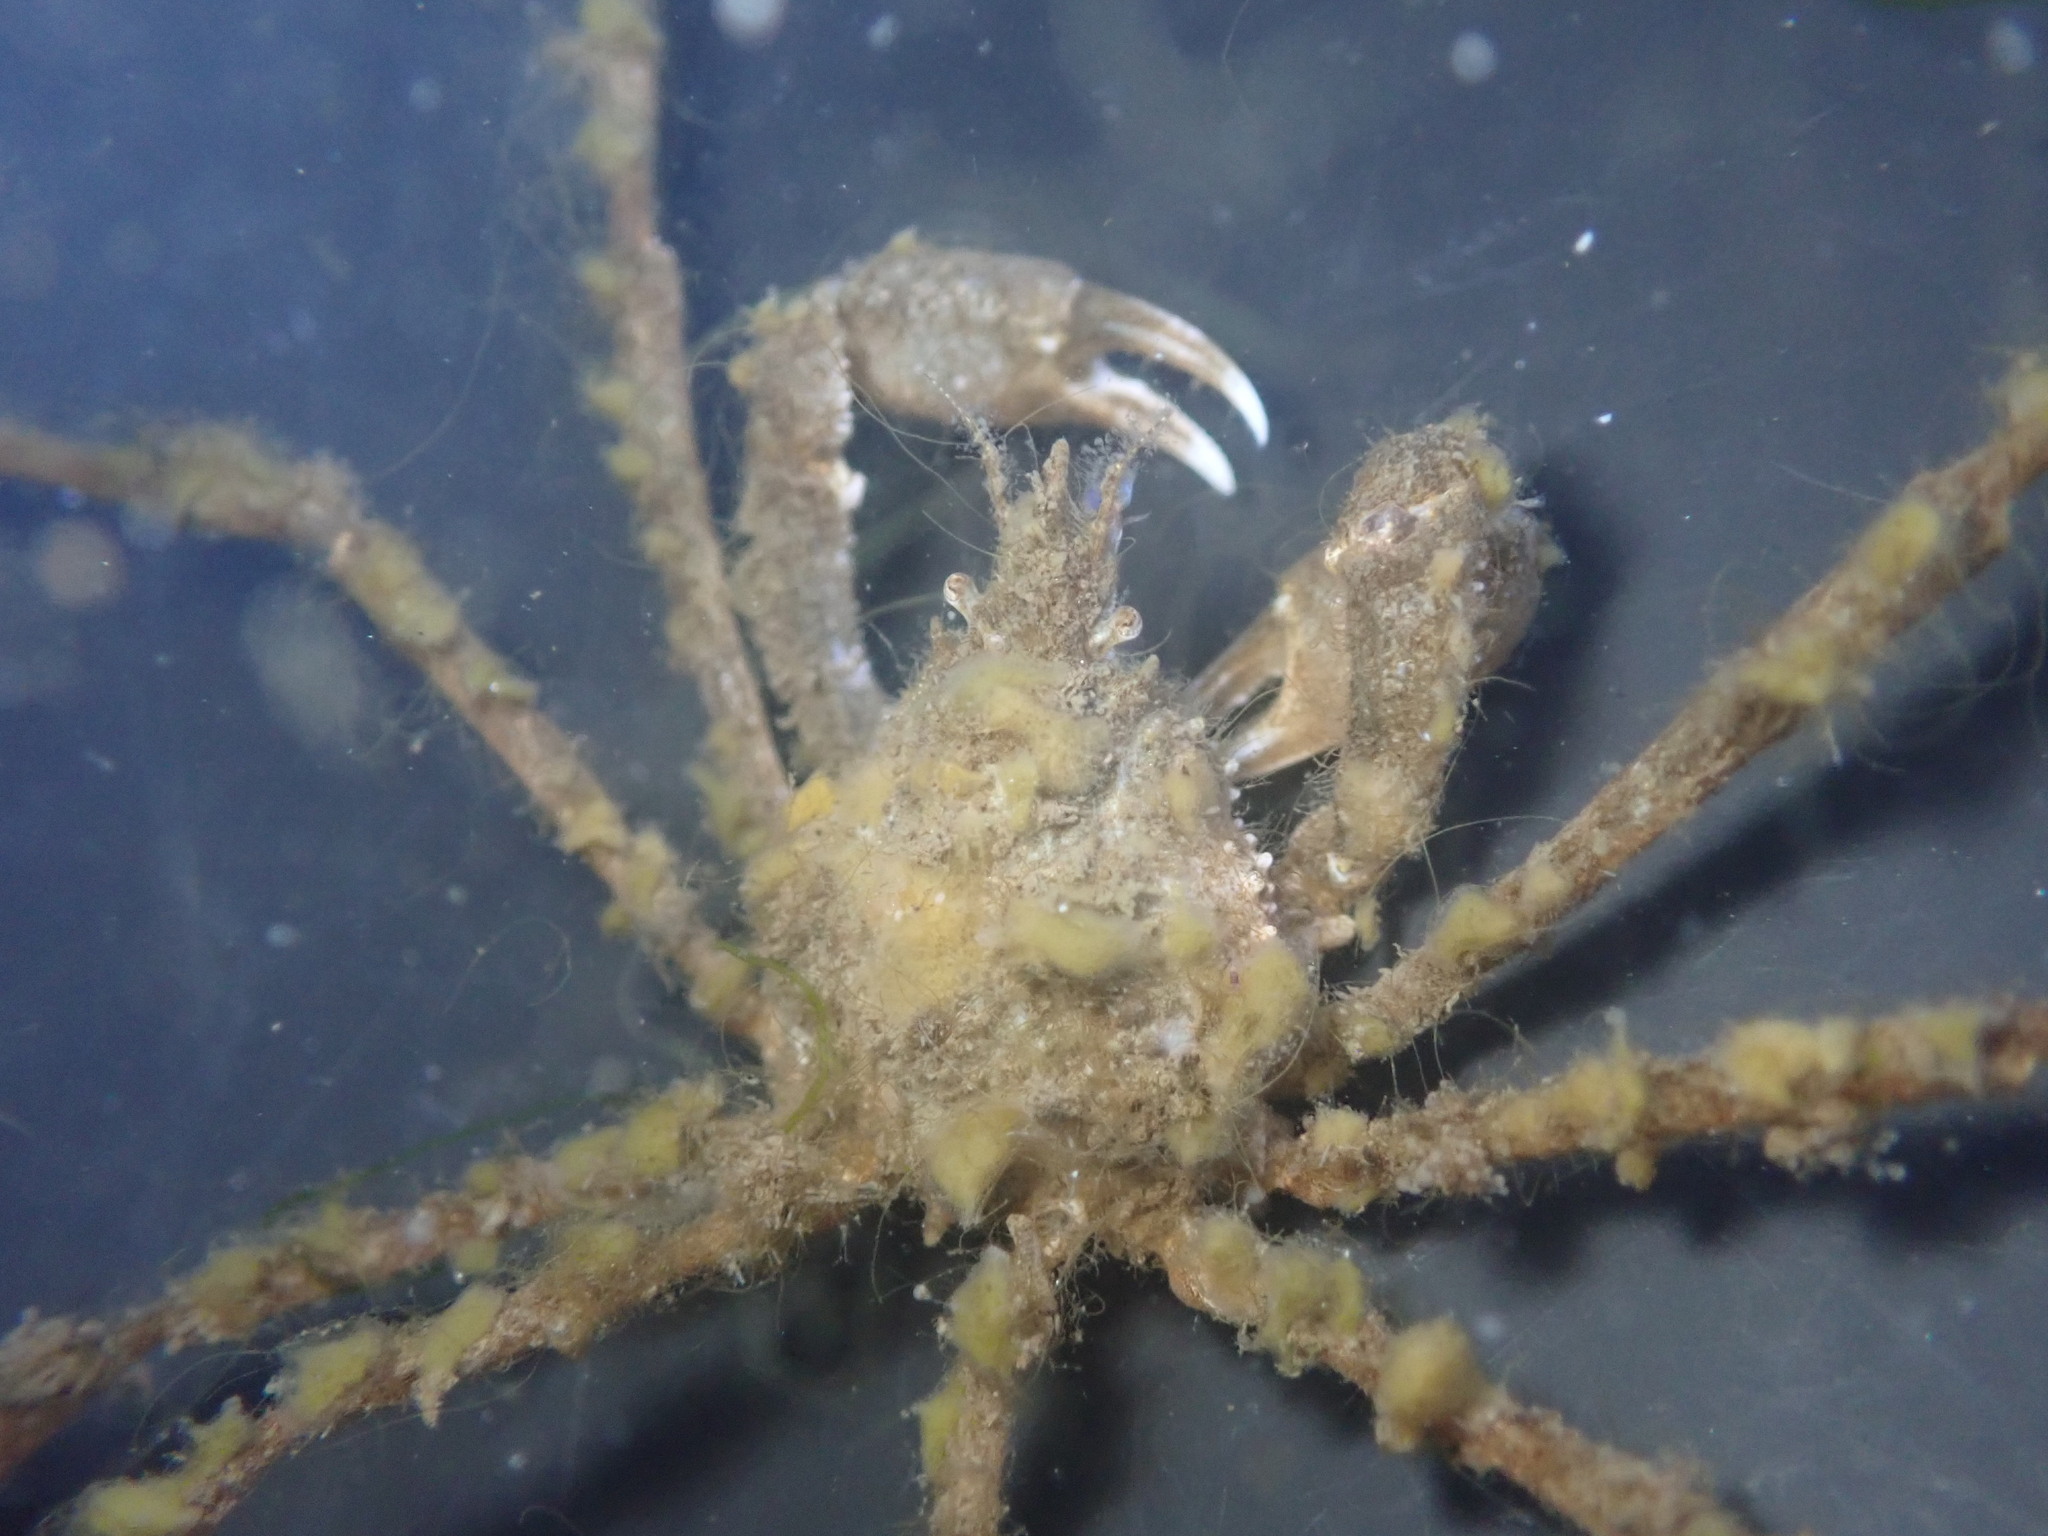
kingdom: Animalia
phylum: Arthropoda
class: Malacostraca
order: Decapoda
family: Inachoididae
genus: Pyromaia
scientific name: Pyromaia tuberculata
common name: Tuberculate pear crab
